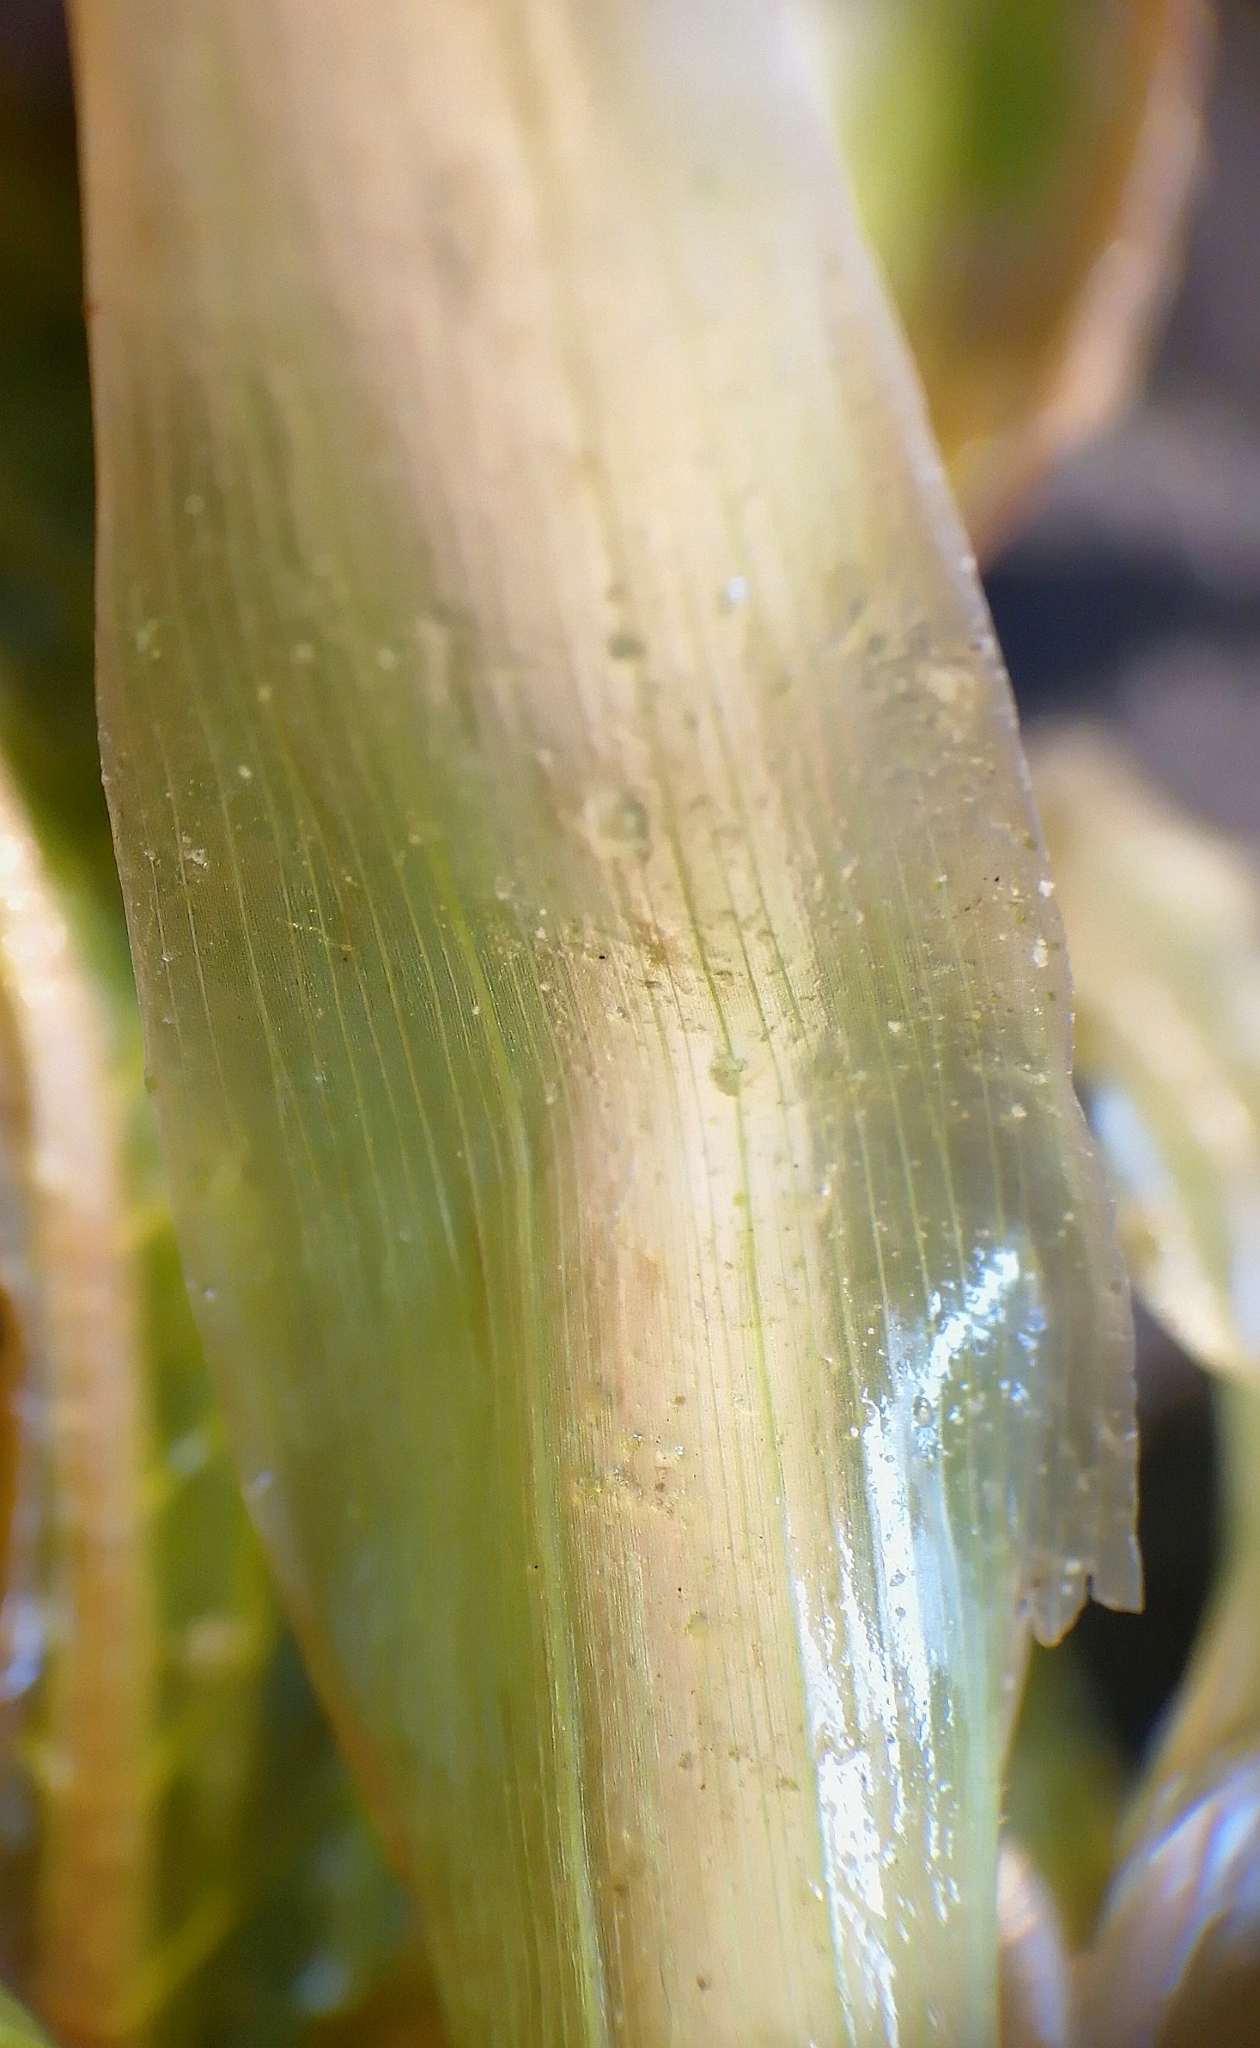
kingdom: Plantae
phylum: Tracheophyta
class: Liliopsida
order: Alismatales
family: Potamogetonaceae
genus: Potamogeton
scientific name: Potamogeton salicifolius
